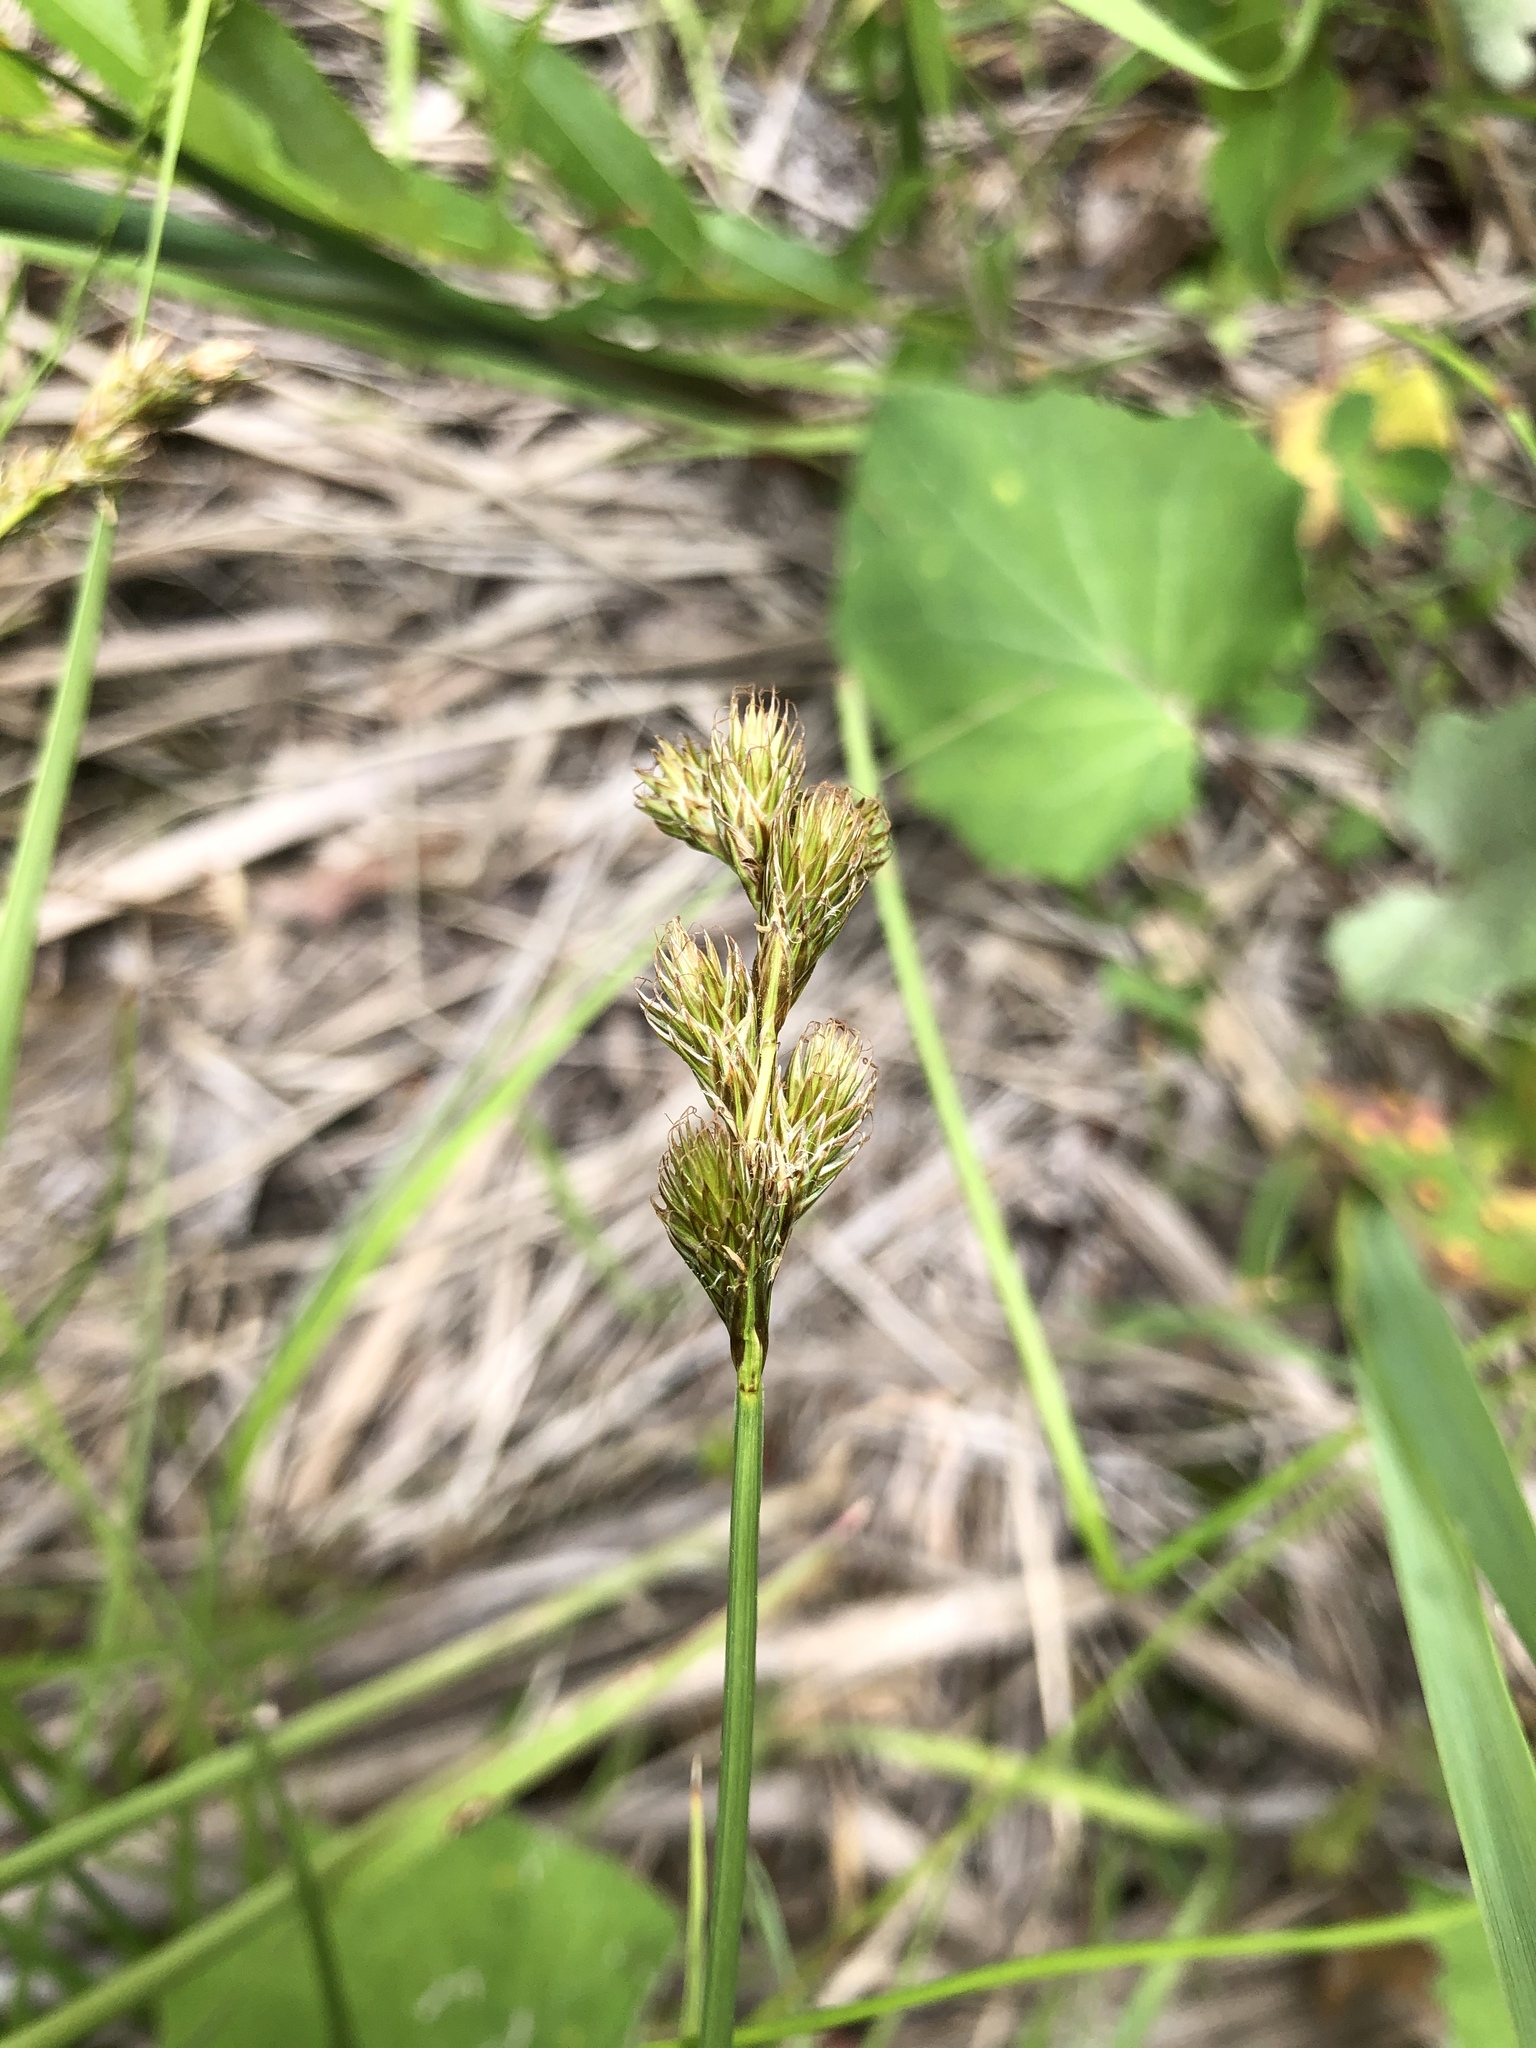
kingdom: Plantae
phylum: Tracheophyta
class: Liliopsida
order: Poales
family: Cyperaceae
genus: Carex
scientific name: Carex leporina
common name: Oval sedge
